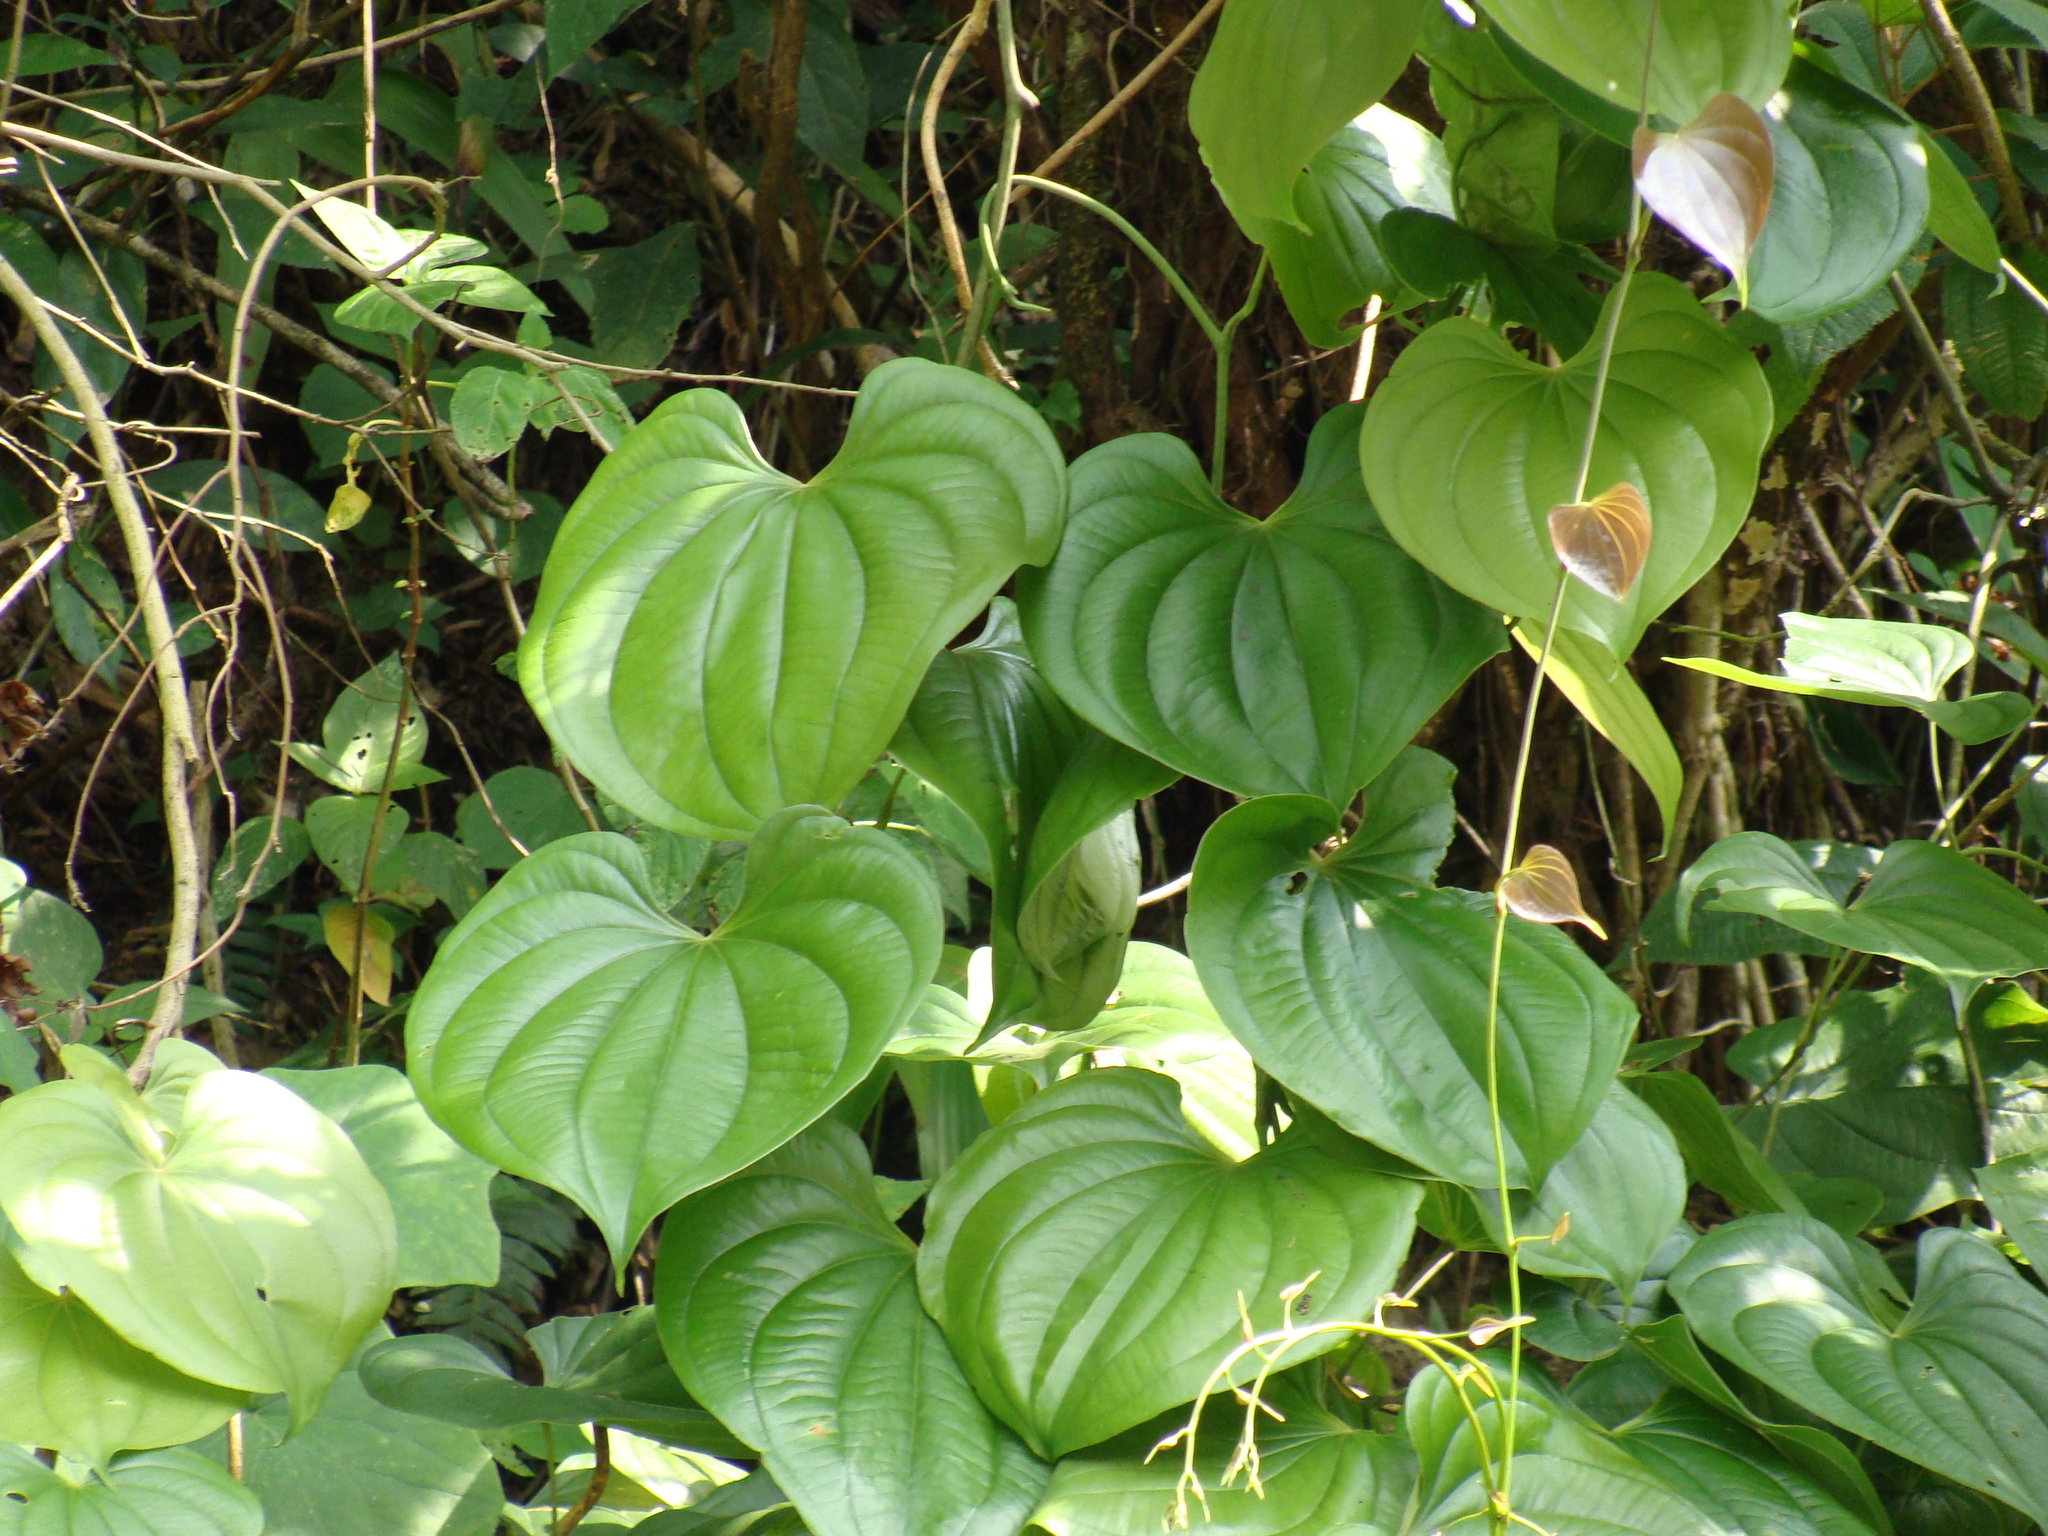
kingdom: Plantae
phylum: Tracheophyta
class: Liliopsida
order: Dioscoreales
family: Dioscoreaceae
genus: Dioscorea
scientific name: Dioscorea alata
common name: Water yam
